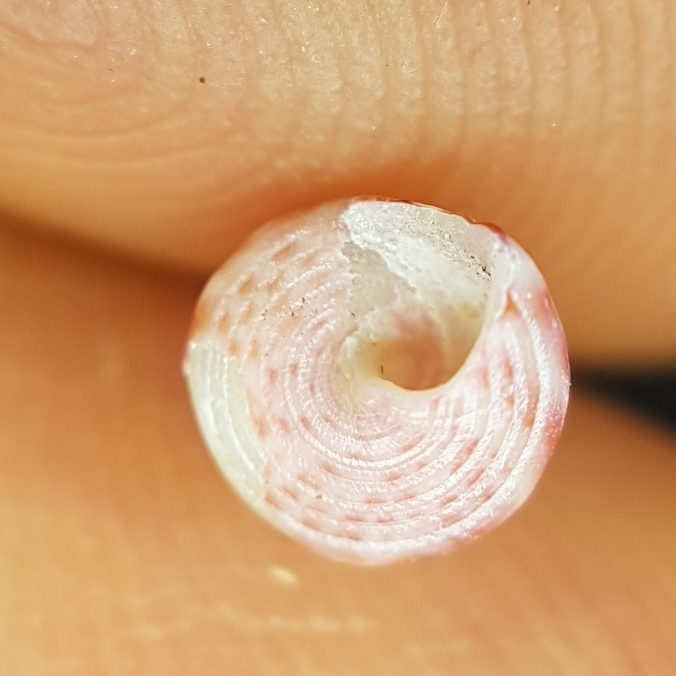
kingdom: Animalia
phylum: Mollusca
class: Gastropoda
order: Trochida
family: Trochidae
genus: Jujubinus
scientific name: Jujubinus exasperatus
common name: Rough top shell
